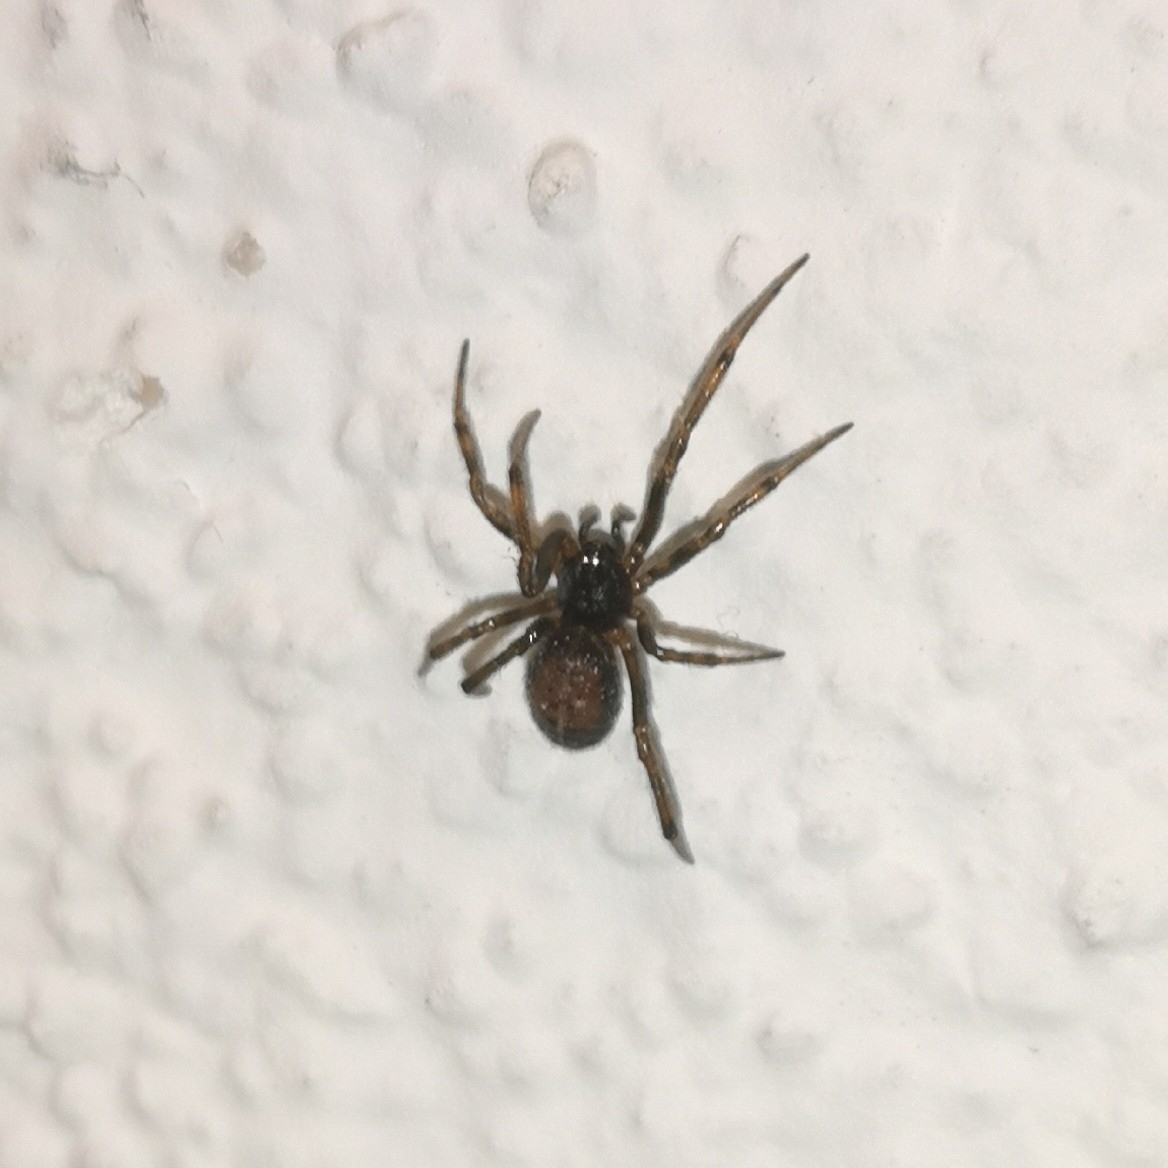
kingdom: Animalia
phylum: Arthropoda
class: Arachnida
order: Araneae
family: Theridiidae
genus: Steatoda
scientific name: Steatoda bipunctata
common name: False widow
